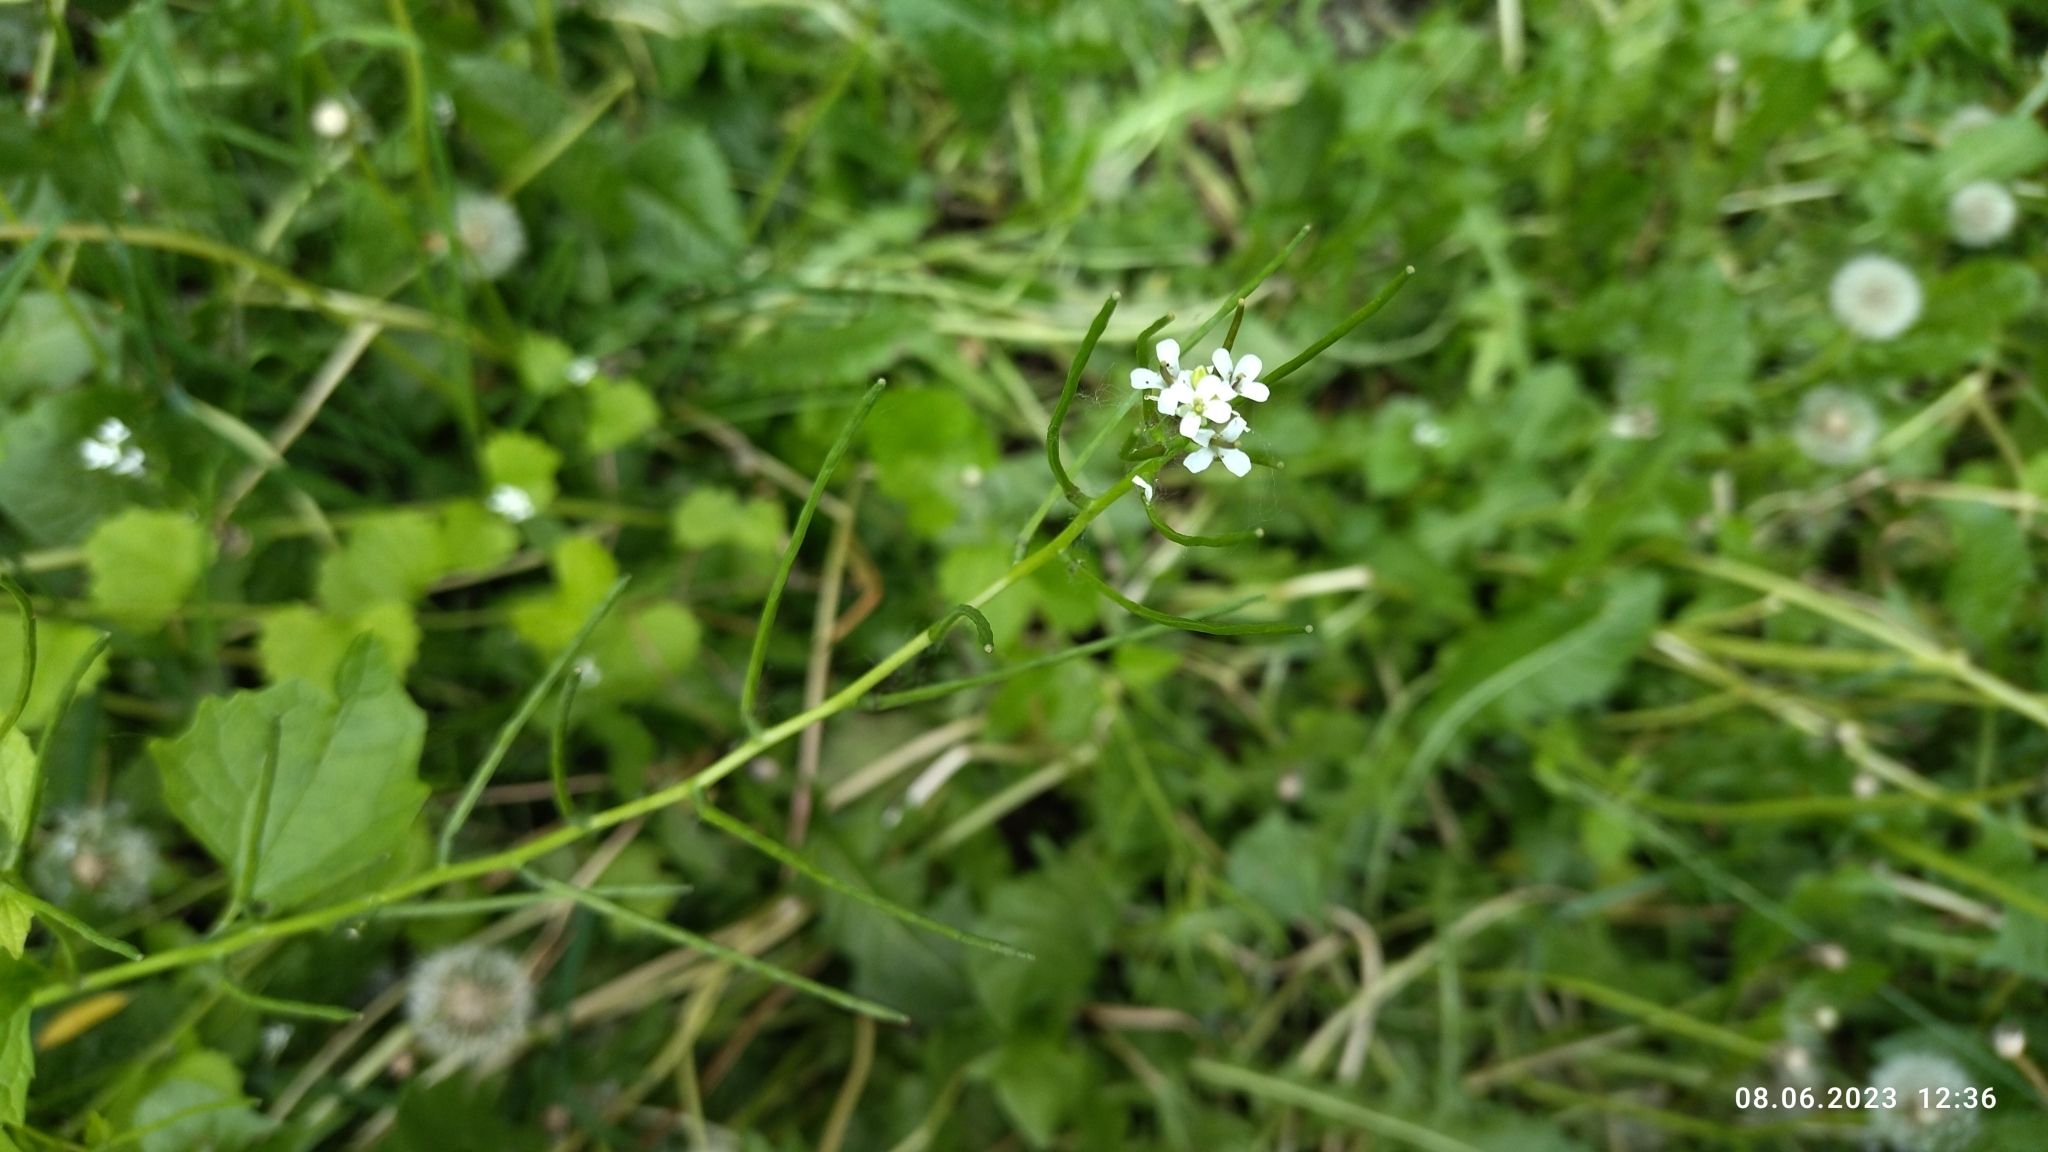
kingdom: Plantae
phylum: Tracheophyta
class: Magnoliopsida
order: Brassicales
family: Brassicaceae
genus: Alliaria
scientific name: Alliaria petiolata
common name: Garlic mustard
